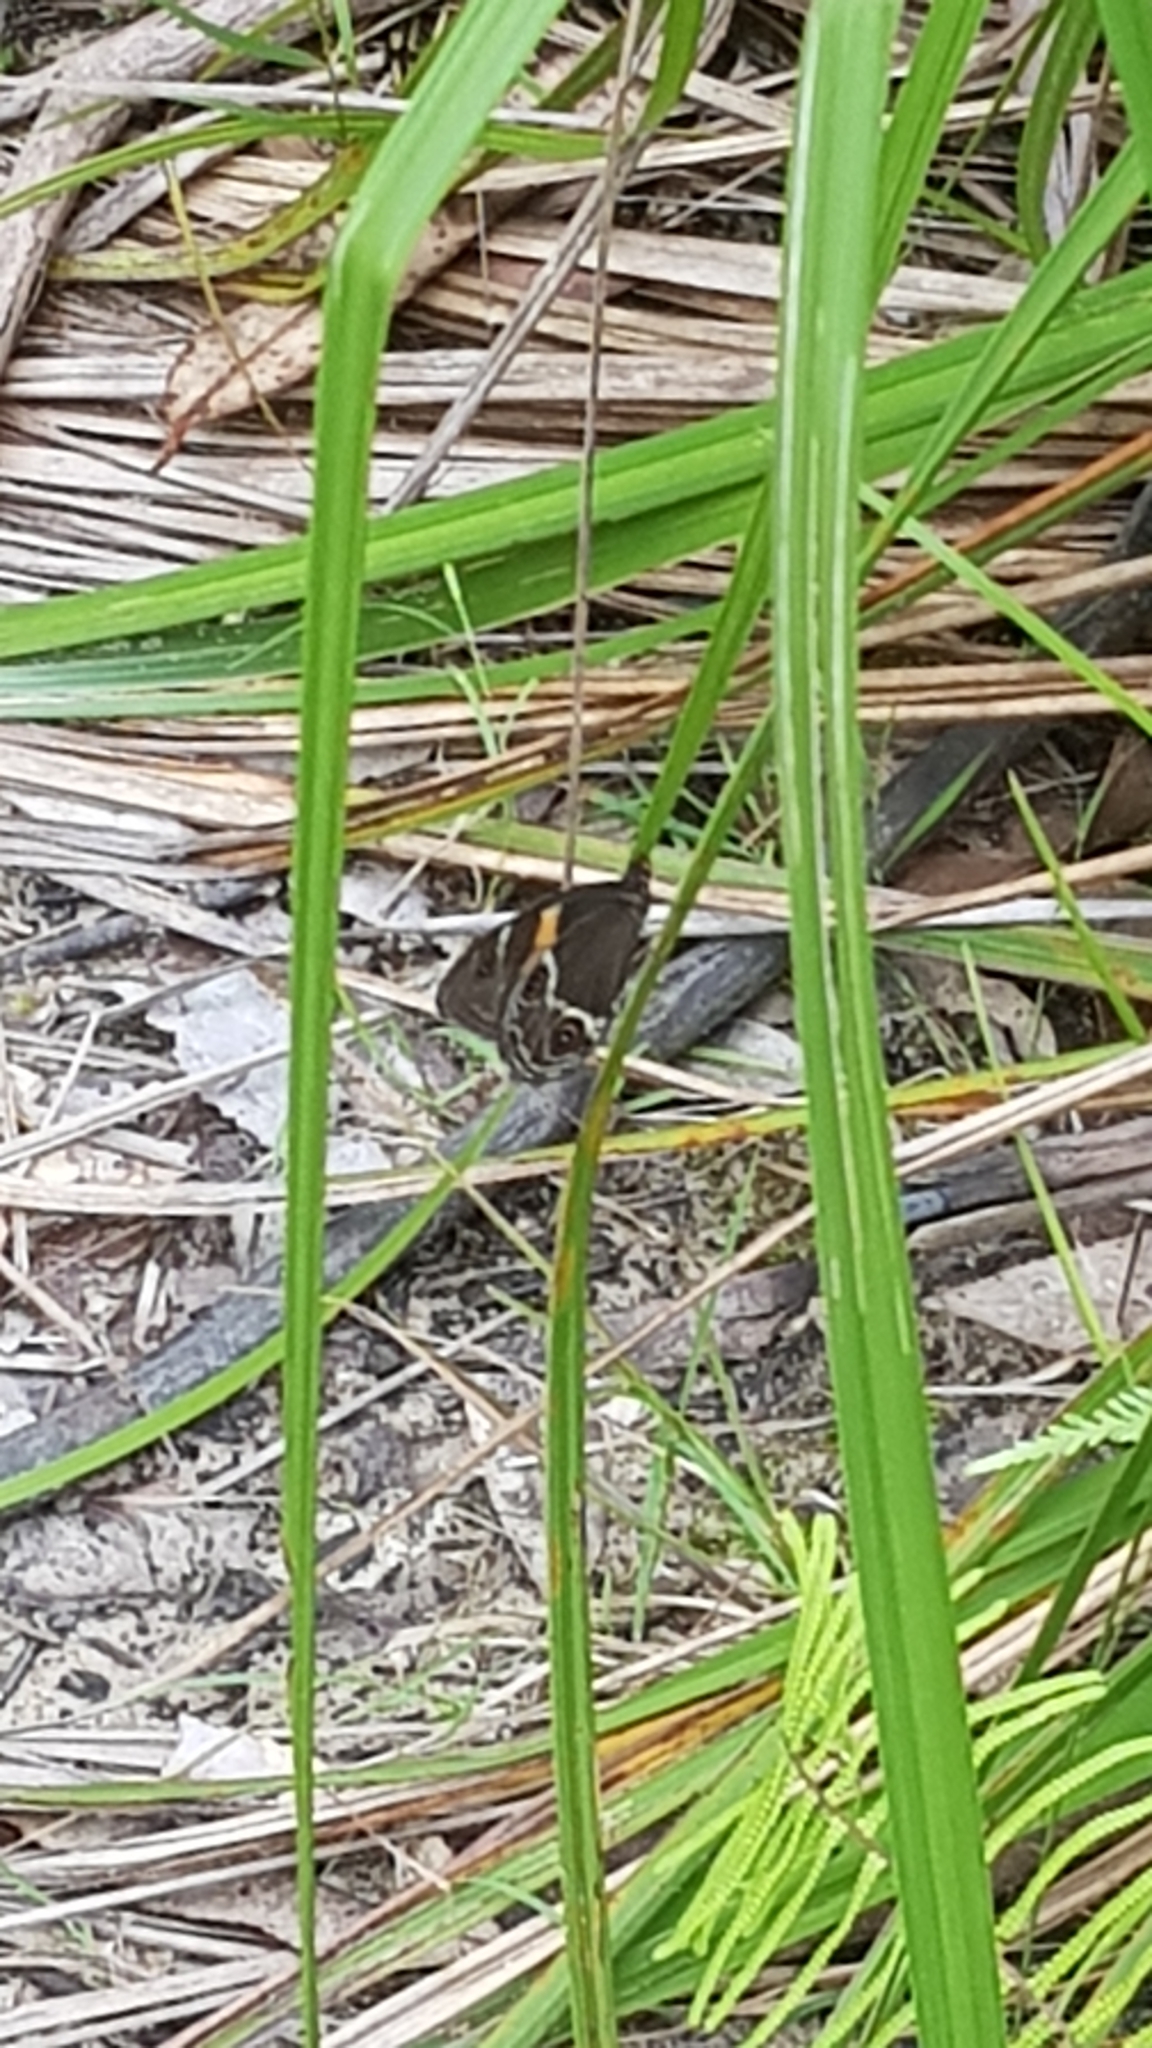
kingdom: Animalia
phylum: Arthropoda
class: Insecta
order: Lepidoptera
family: Nymphalidae
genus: Tisiphone
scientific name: Tisiphone abeona
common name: Swordgrass brown
